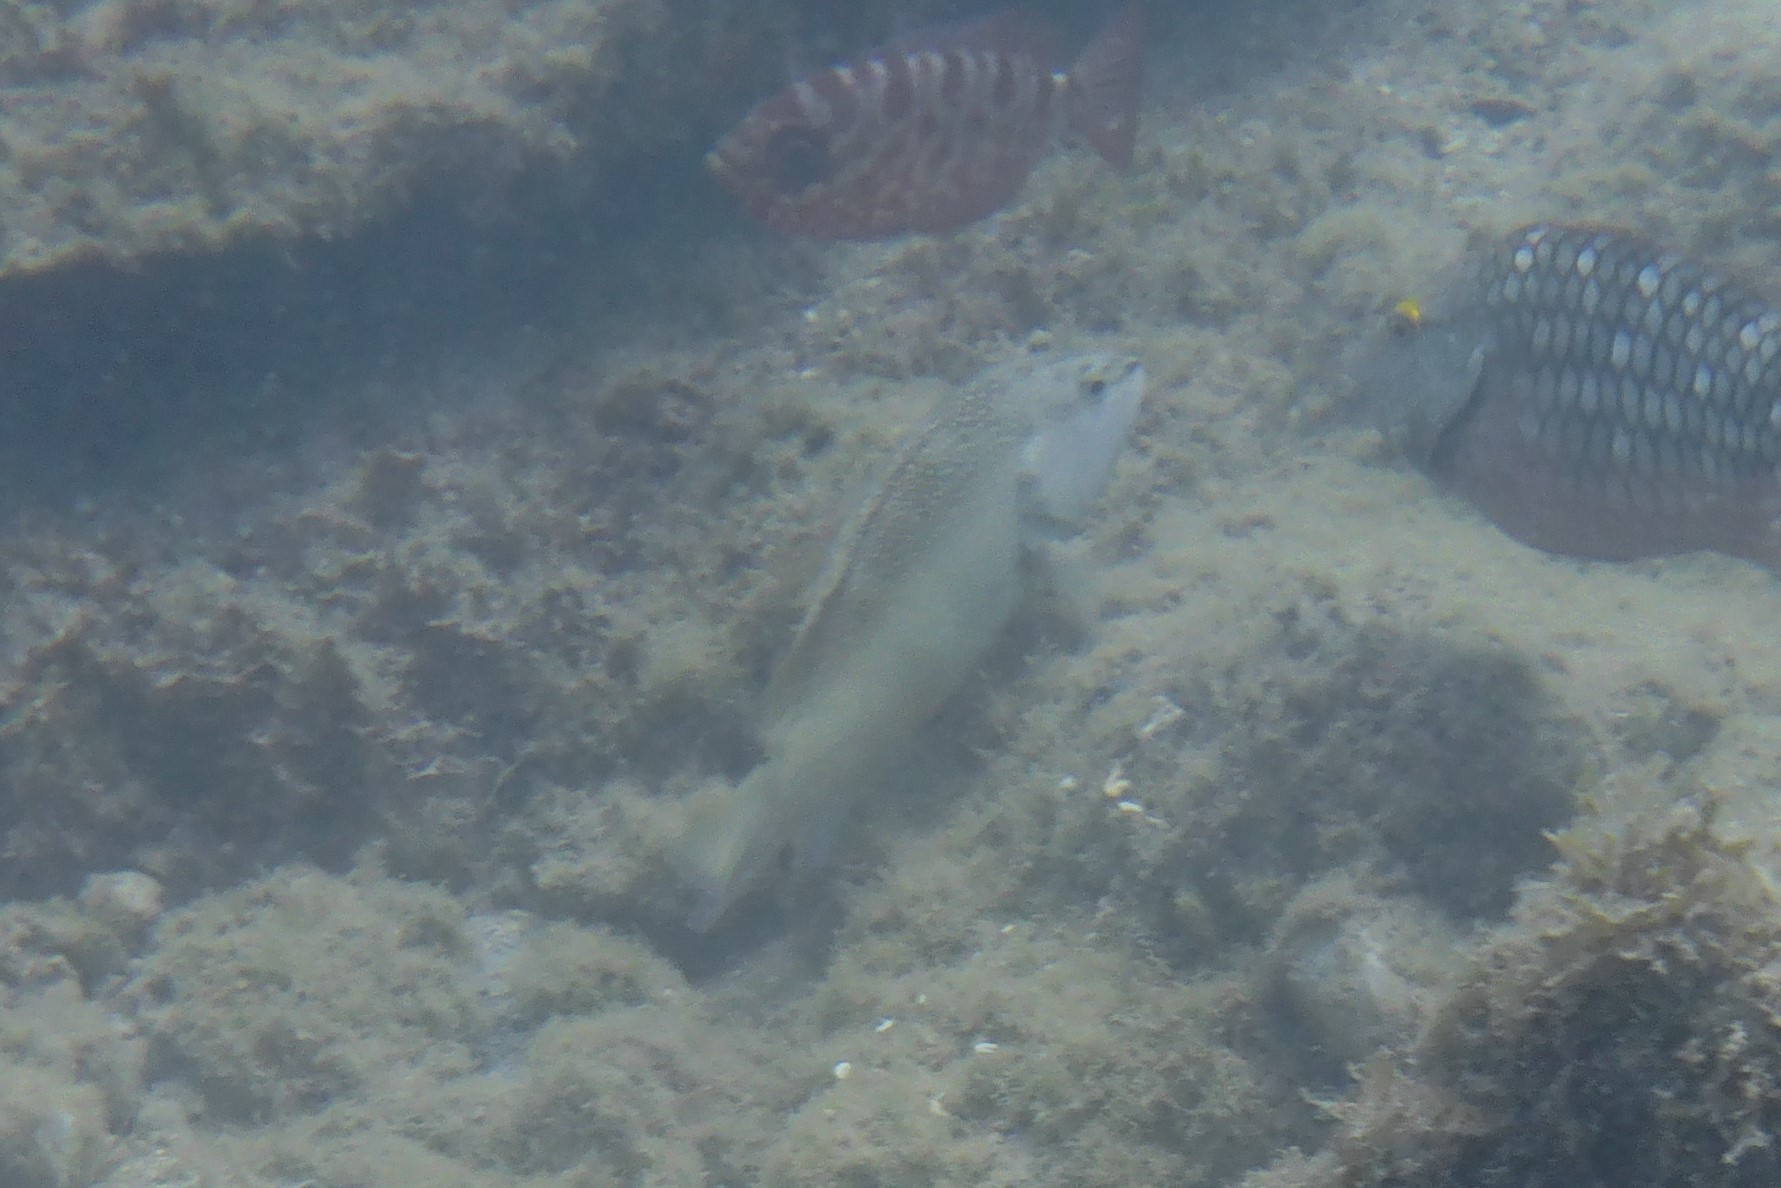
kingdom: Animalia
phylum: Chordata
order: Perciformes
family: Serranidae
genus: Cephalopholis
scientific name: Cephalopholis fulva
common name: Butterfish
